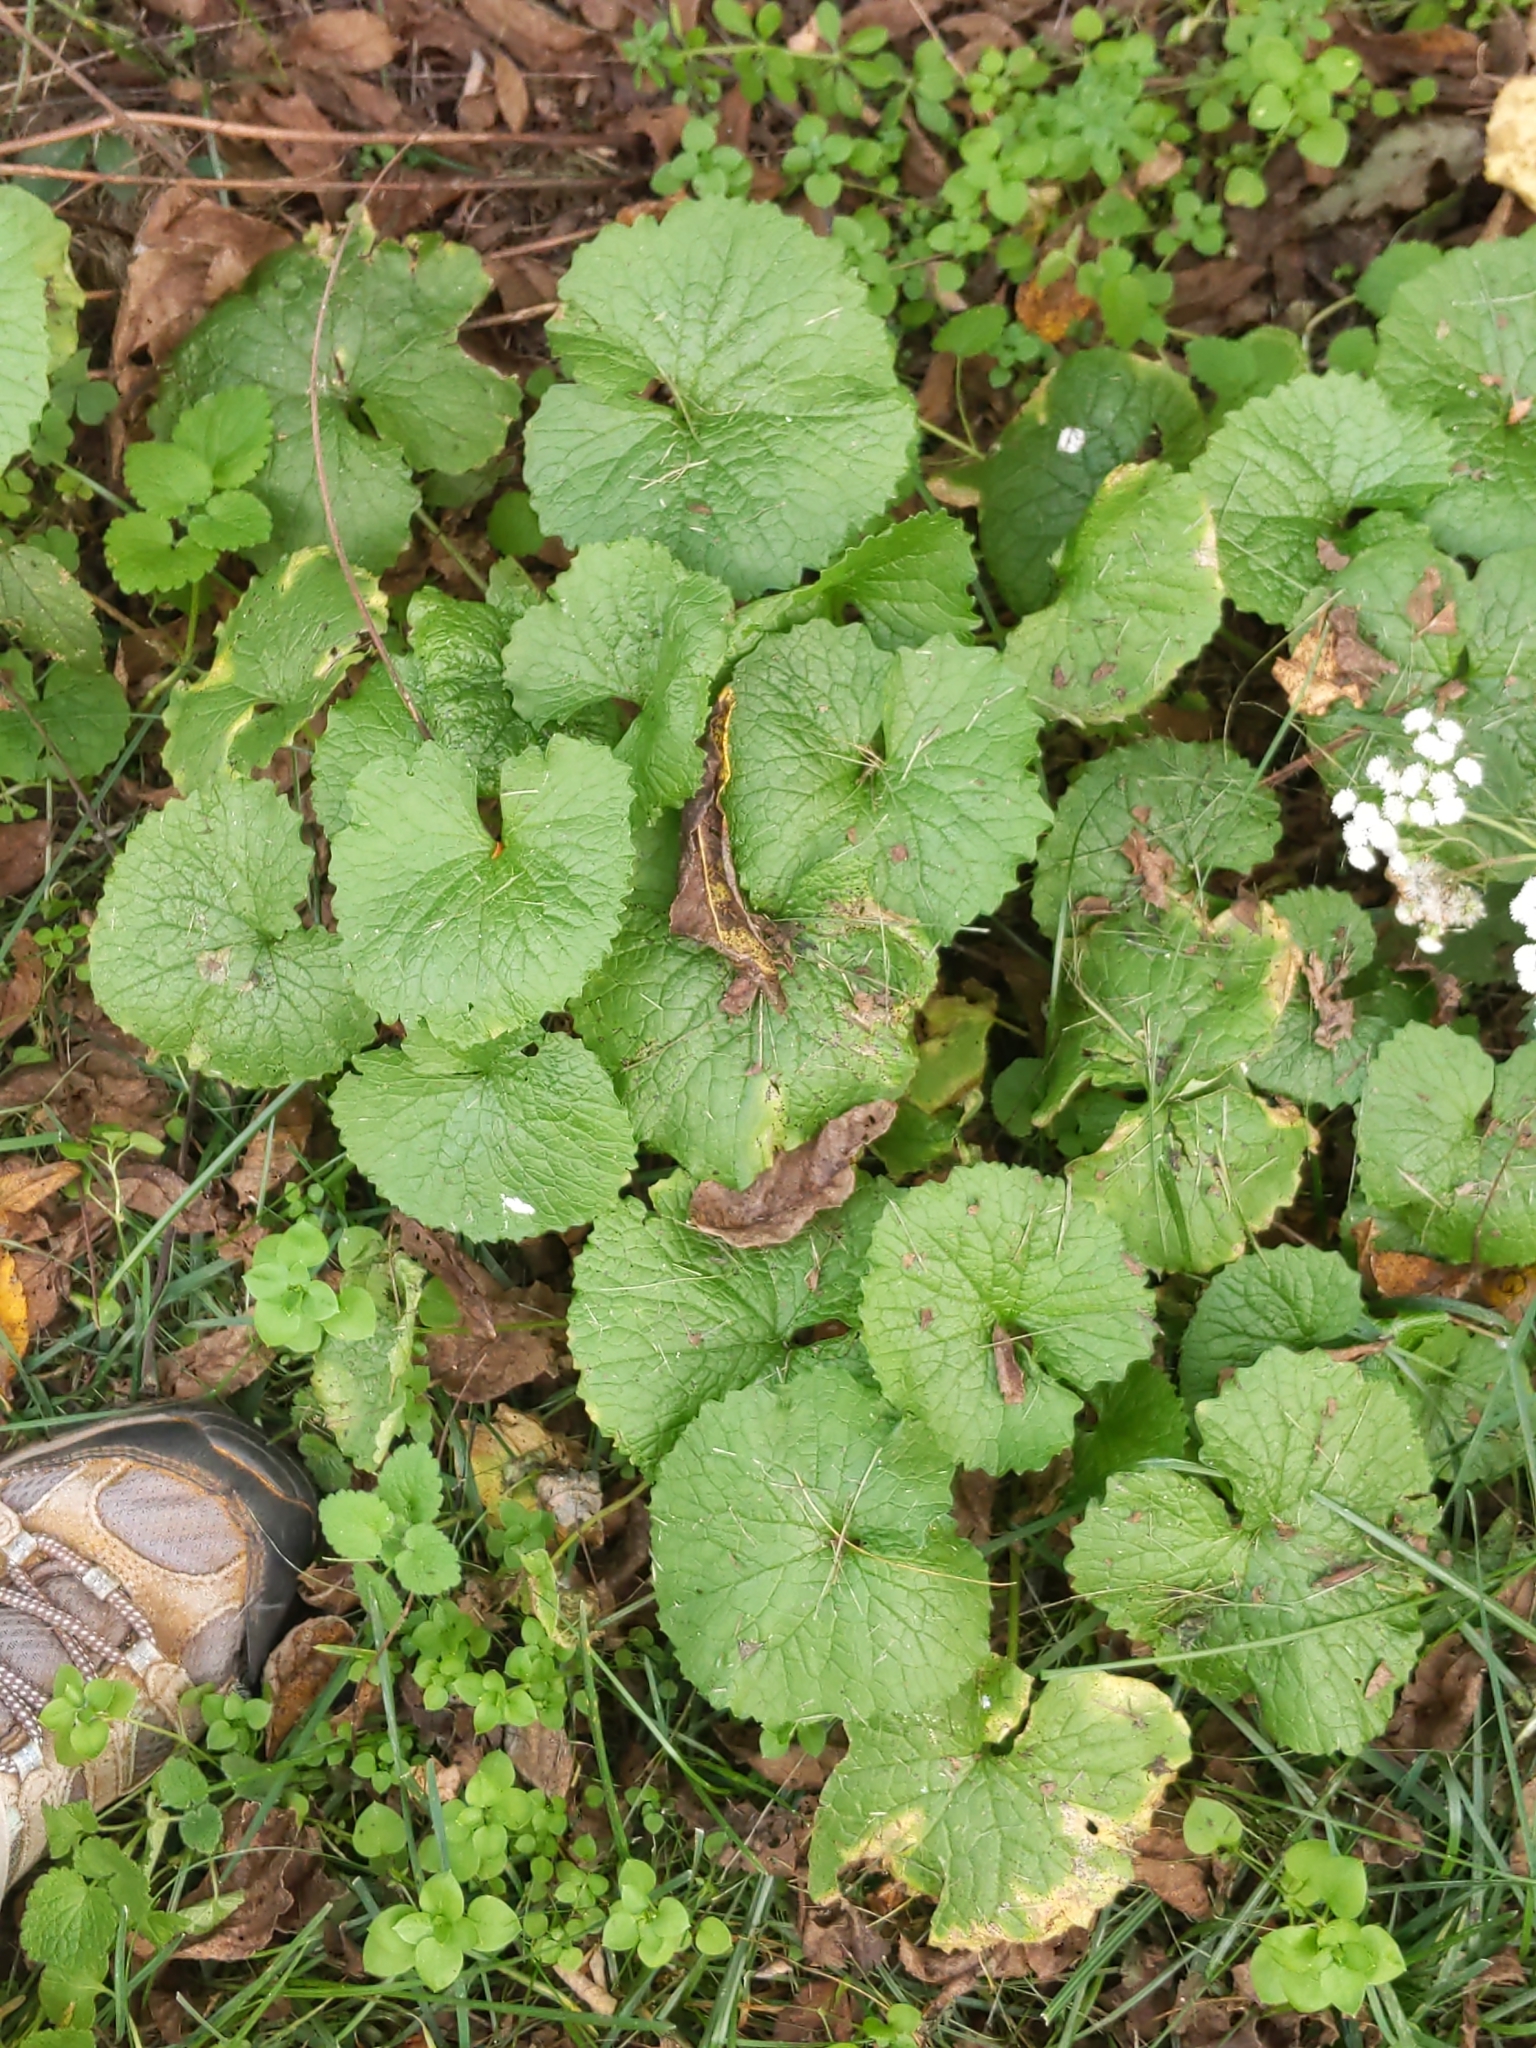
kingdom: Plantae
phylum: Tracheophyta
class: Magnoliopsida
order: Brassicales
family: Brassicaceae
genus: Alliaria
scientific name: Alliaria petiolata
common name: Garlic mustard
